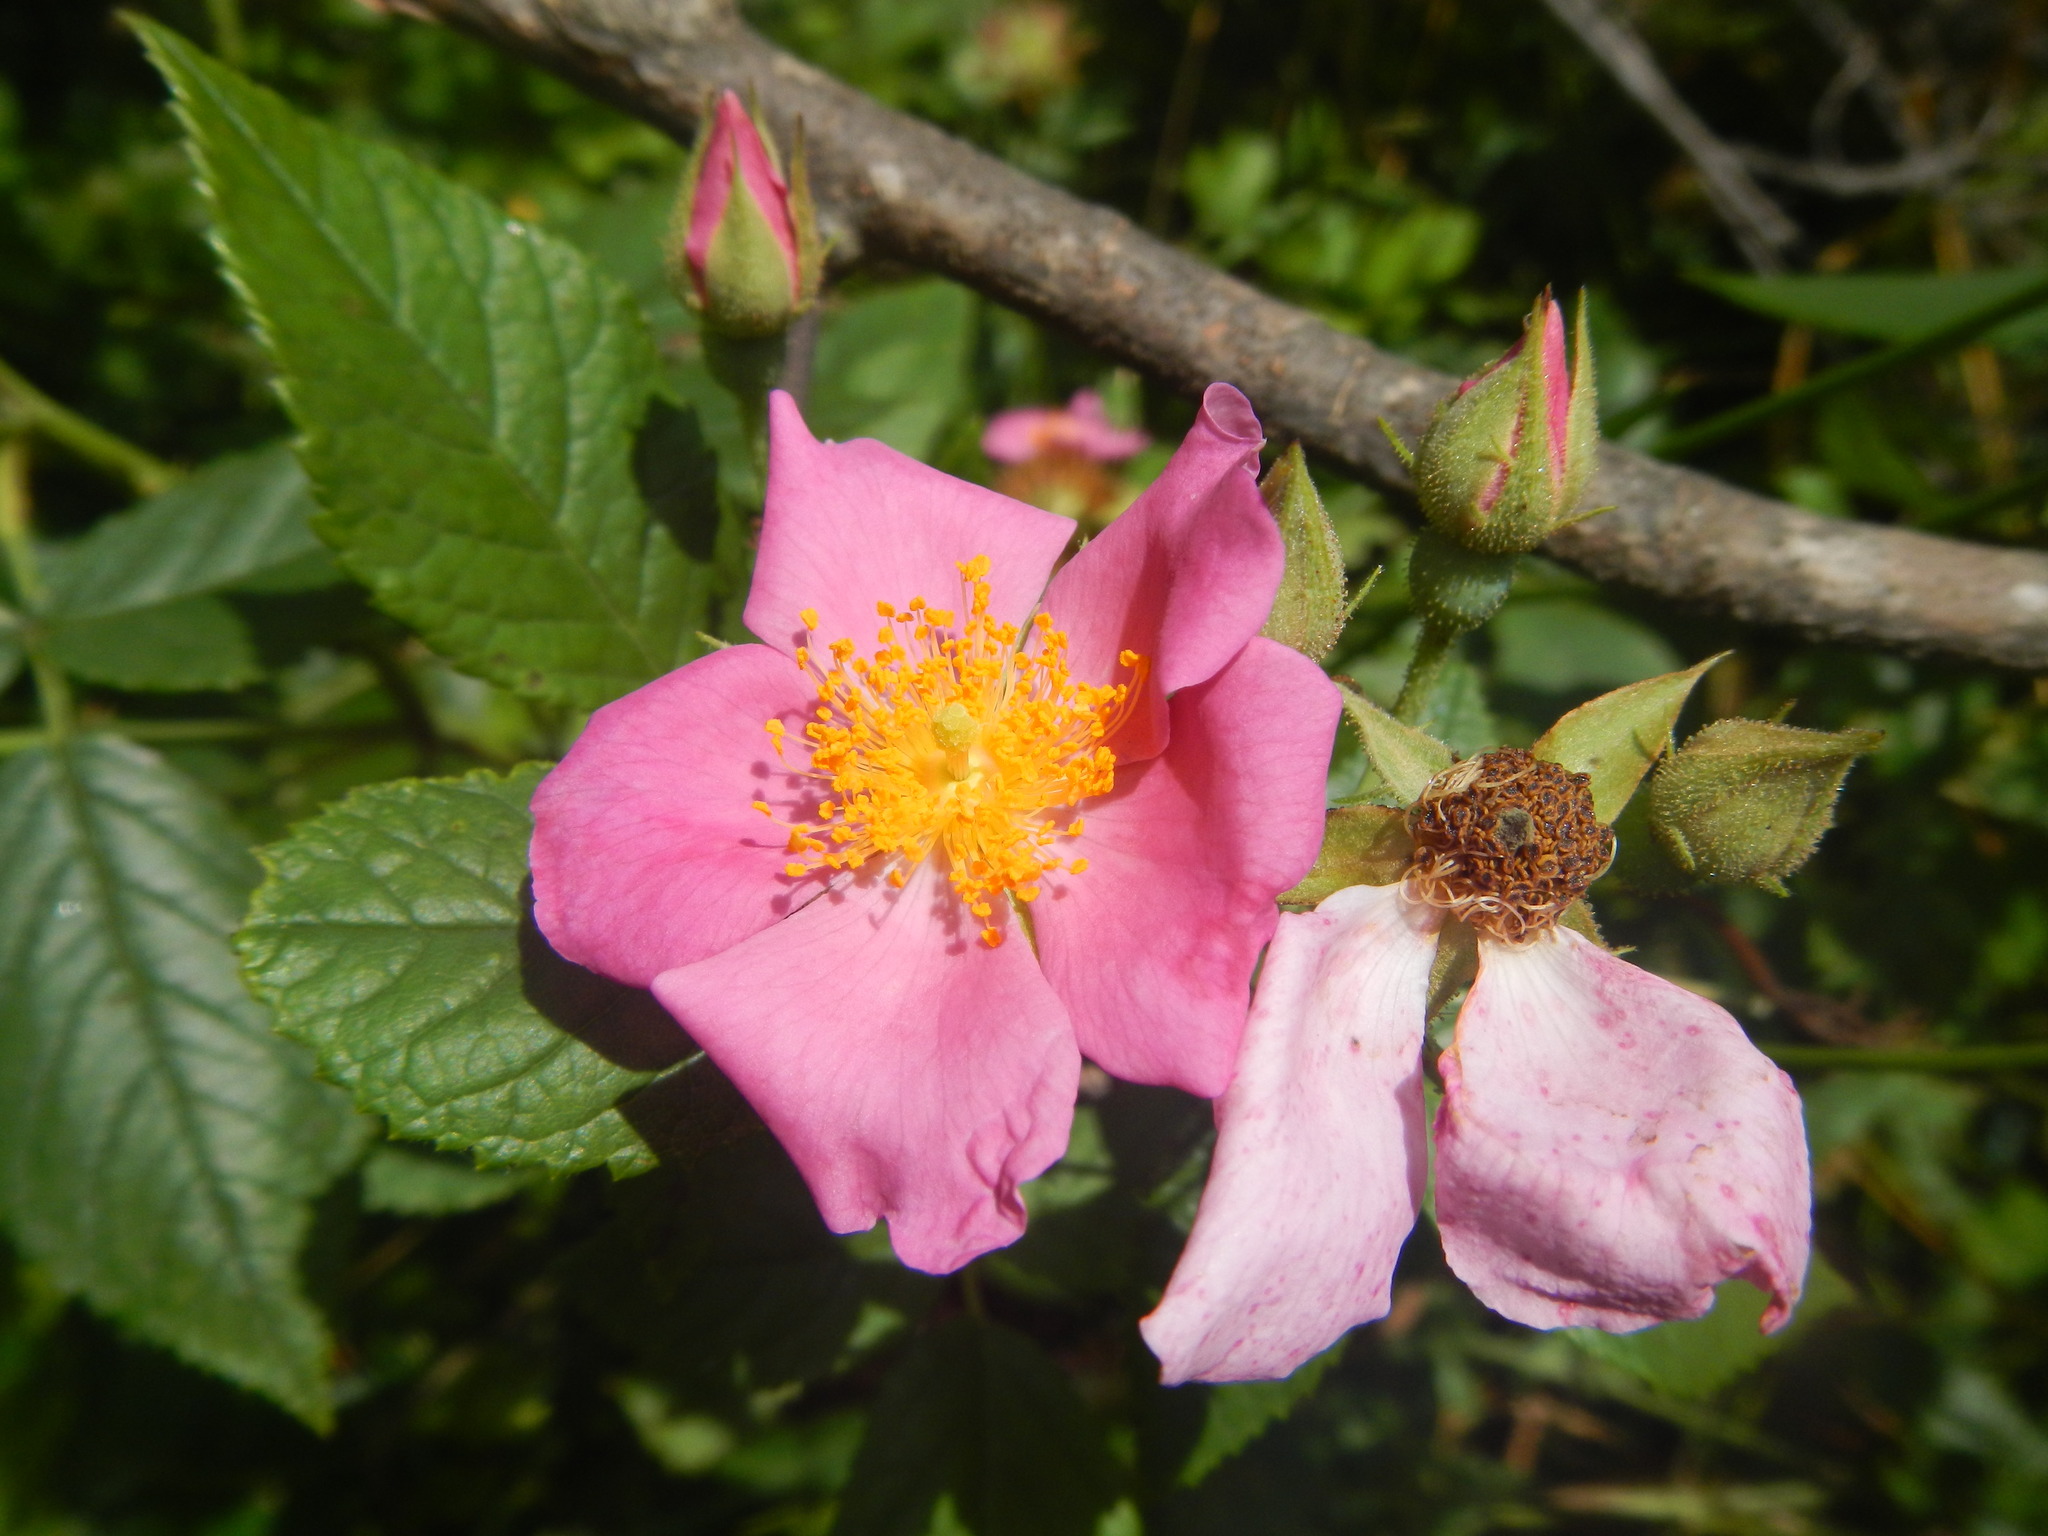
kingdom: Plantae
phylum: Tracheophyta
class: Magnoliopsida
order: Rosales
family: Rosaceae
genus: Rosa
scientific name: Rosa setigera
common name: Prairie rose
